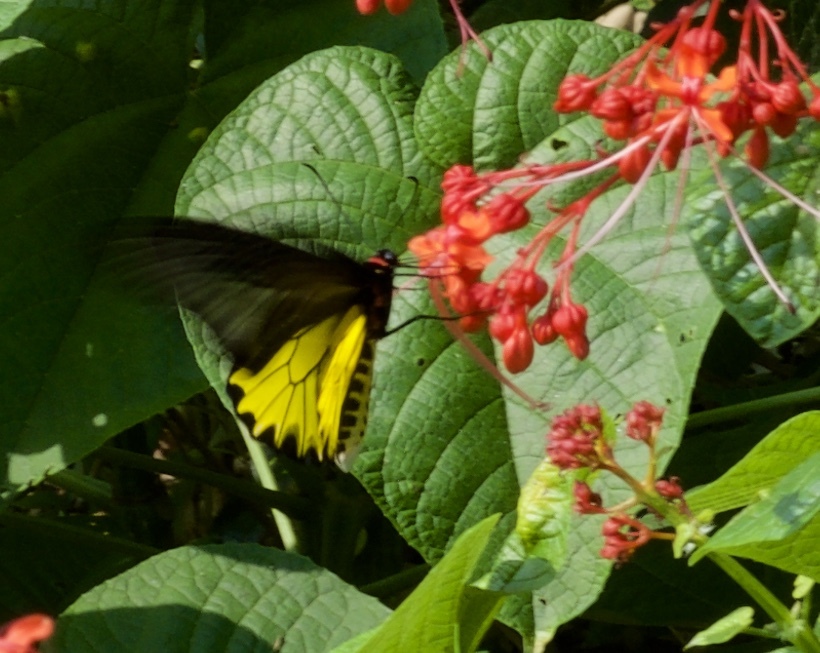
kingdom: Animalia
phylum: Arthropoda
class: Insecta
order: Lepidoptera
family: Papilionidae
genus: Troides
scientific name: Troides aeacus
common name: Golden birdwing
